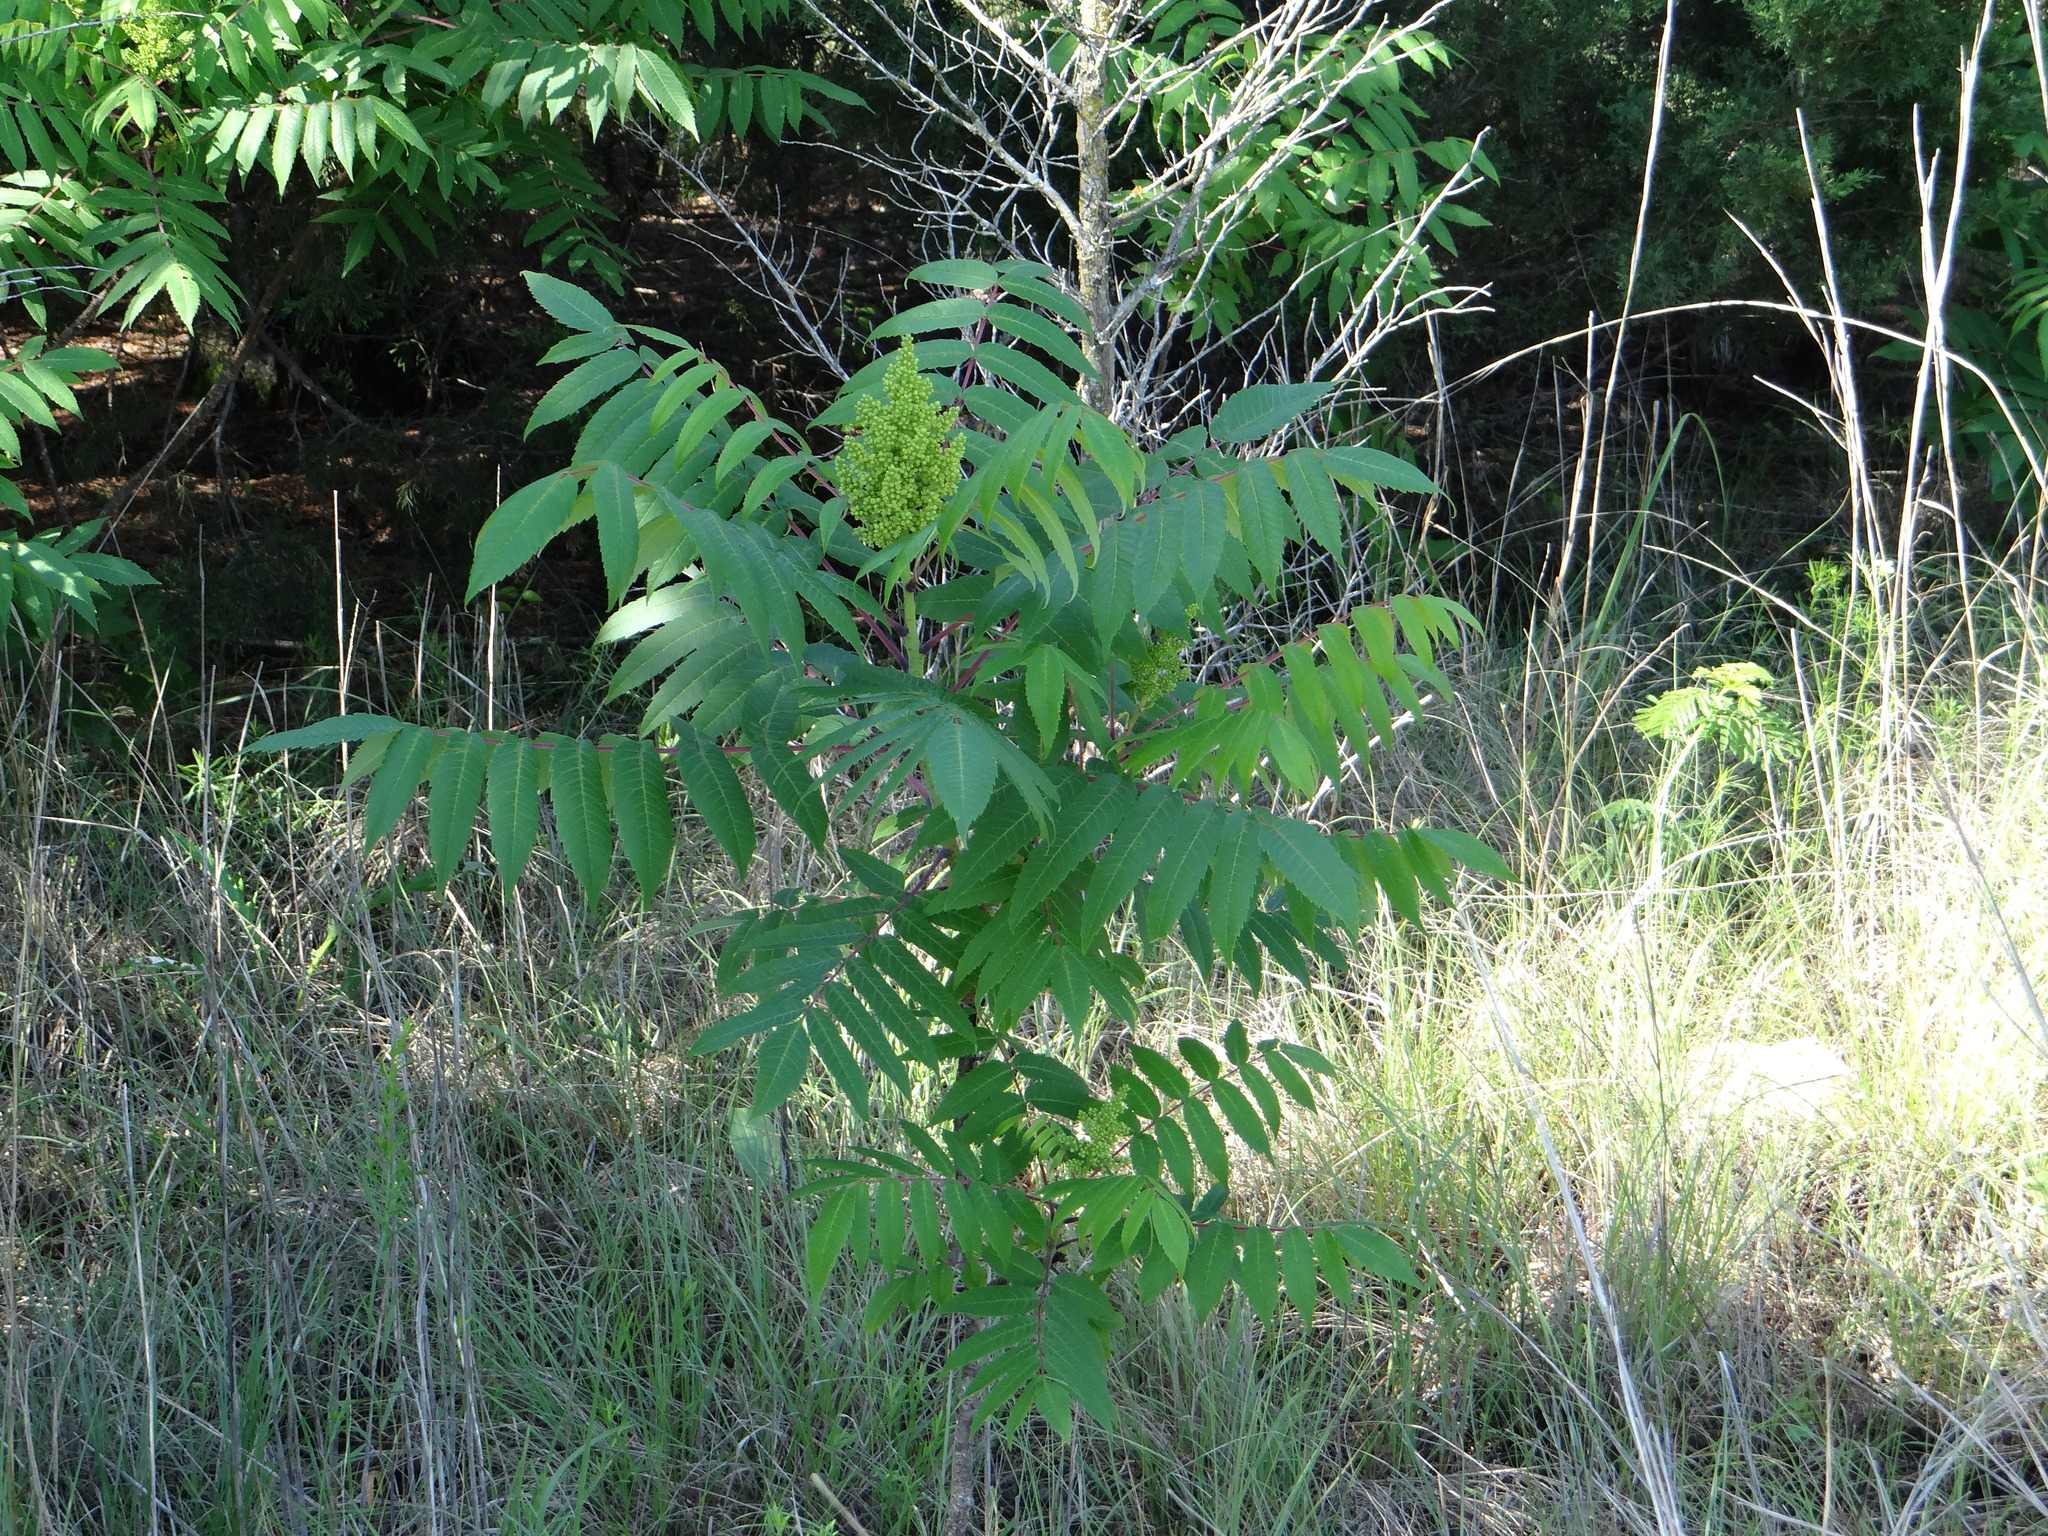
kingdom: Plantae
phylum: Tracheophyta
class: Magnoliopsida
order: Sapindales
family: Anacardiaceae
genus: Rhus
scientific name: Rhus glabra
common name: Scarlet sumac
